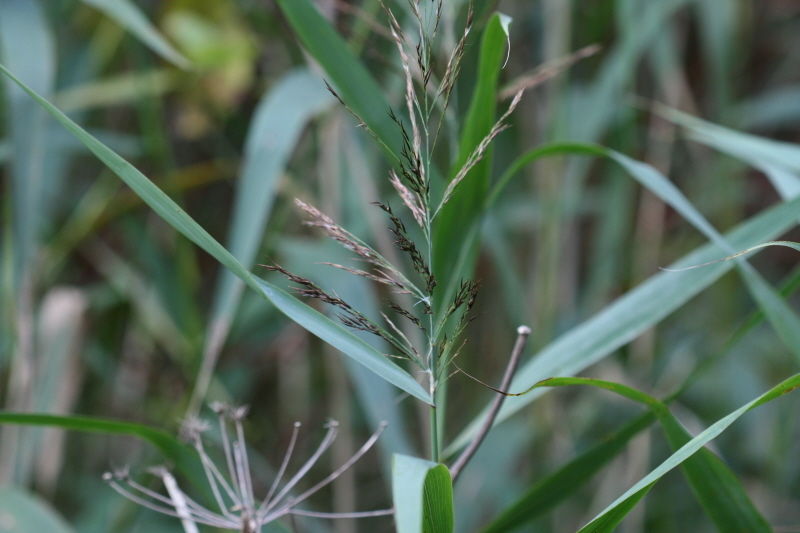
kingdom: Plantae
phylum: Tracheophyta
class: Liliopsida
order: Poales
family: Poaceae
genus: Phragmites
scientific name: Phragmites australis
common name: Common reed
